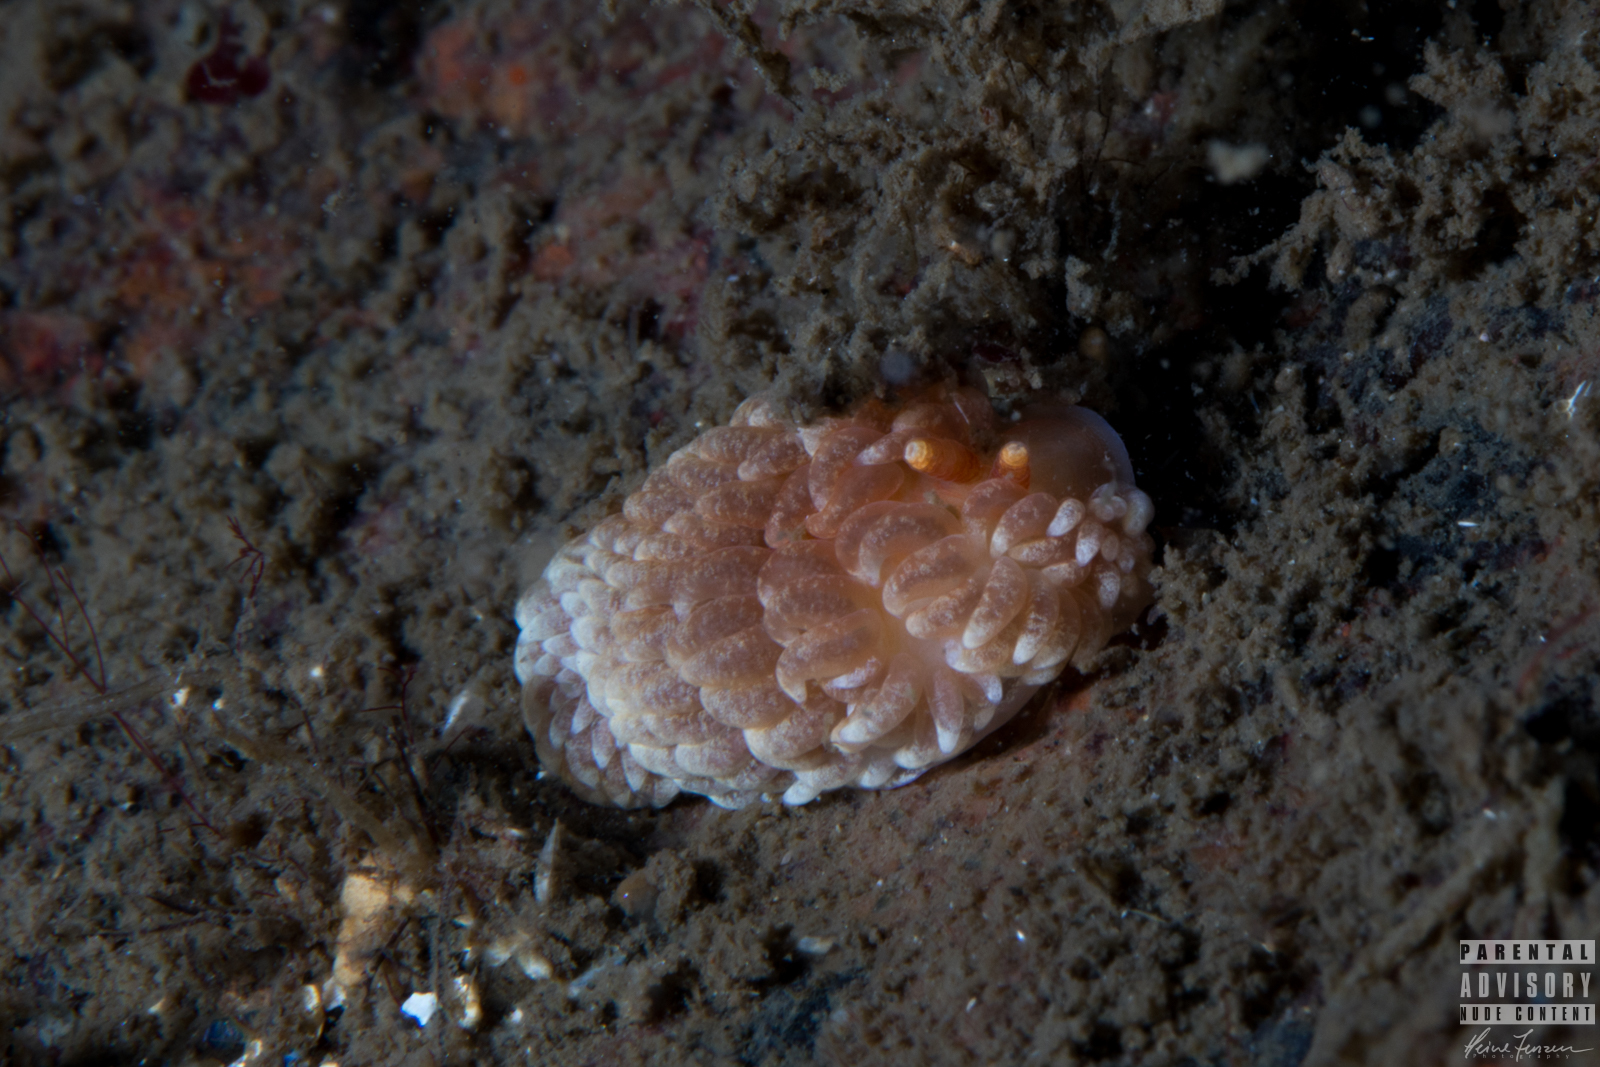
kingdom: Animalia
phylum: Mollusca
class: Gastropoda
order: Nudibranchia
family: Aeolidiidae
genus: Aeolidiella
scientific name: Aeolidiella glauca
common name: Orange-brown aeolid
